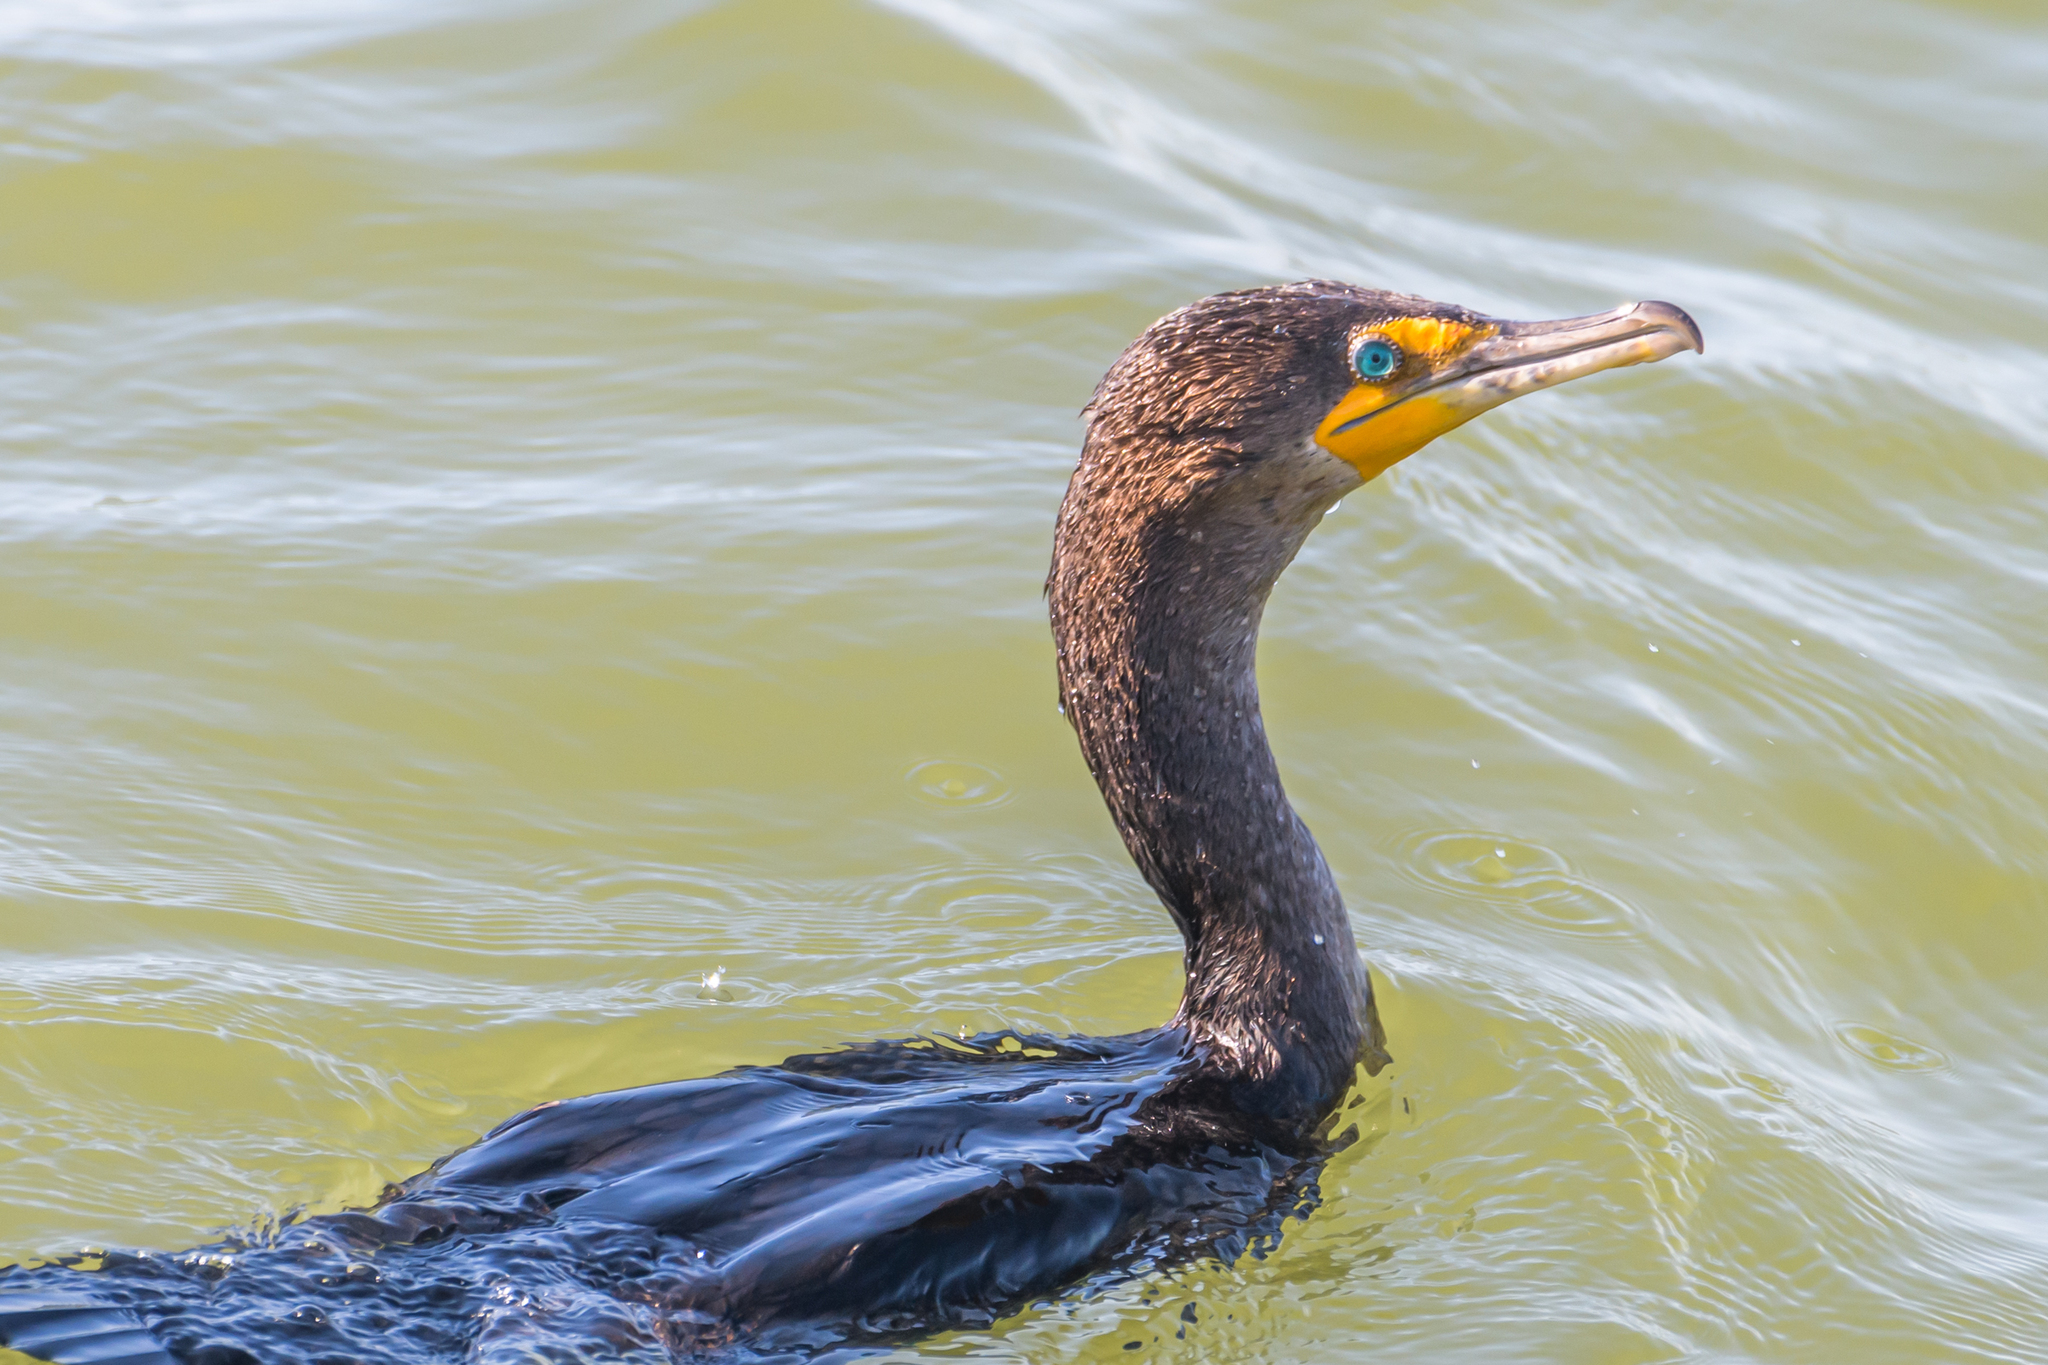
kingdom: Animalia
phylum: Chordata
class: Aves
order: Suliformes
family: Phalacrocoracidae
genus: Phalacrocorax
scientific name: Phalacrocorax auritus
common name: Double-crested cormorant
